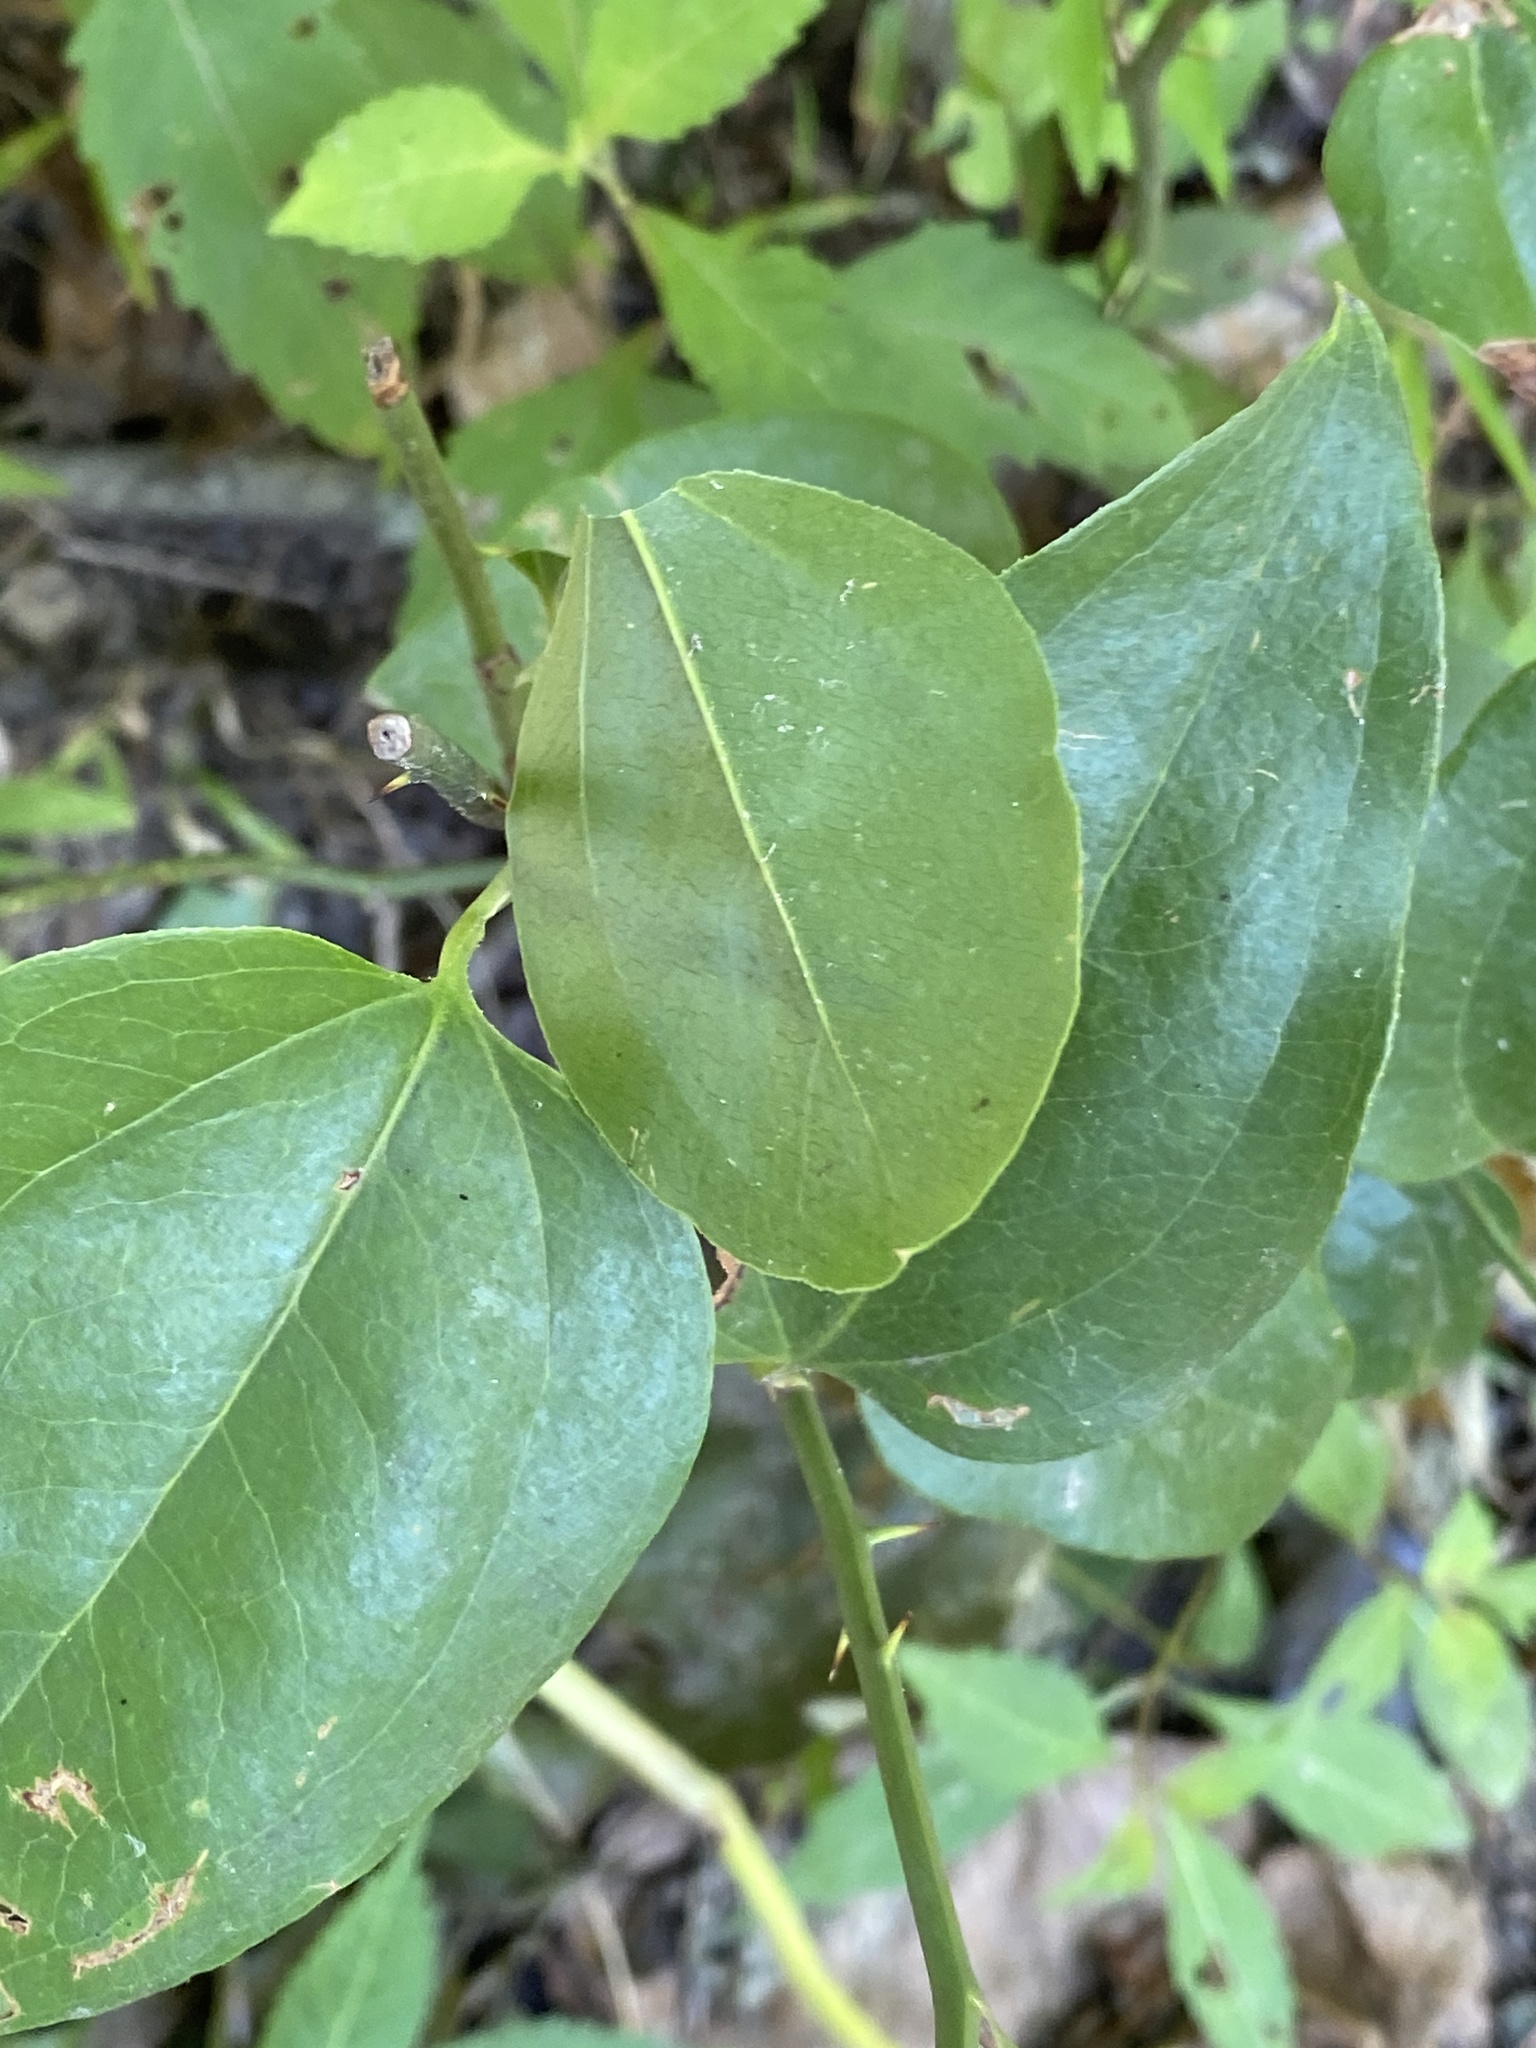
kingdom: Plantae
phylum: Tracheophyta
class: Liliopsida
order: Liliales
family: Smilacaceae
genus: Smilax
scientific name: Smilax rotundifolia
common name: Bullbriar
